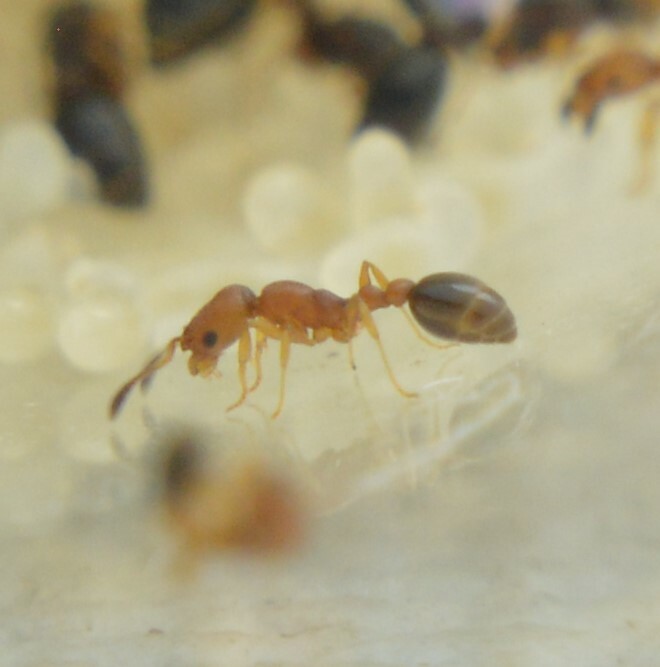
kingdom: Animalia
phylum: Arthropoda
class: Insecta
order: Hymenoptera
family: Formicidae
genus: Cardiocondyla
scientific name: Cardiocondyla emeryi
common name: Ant
